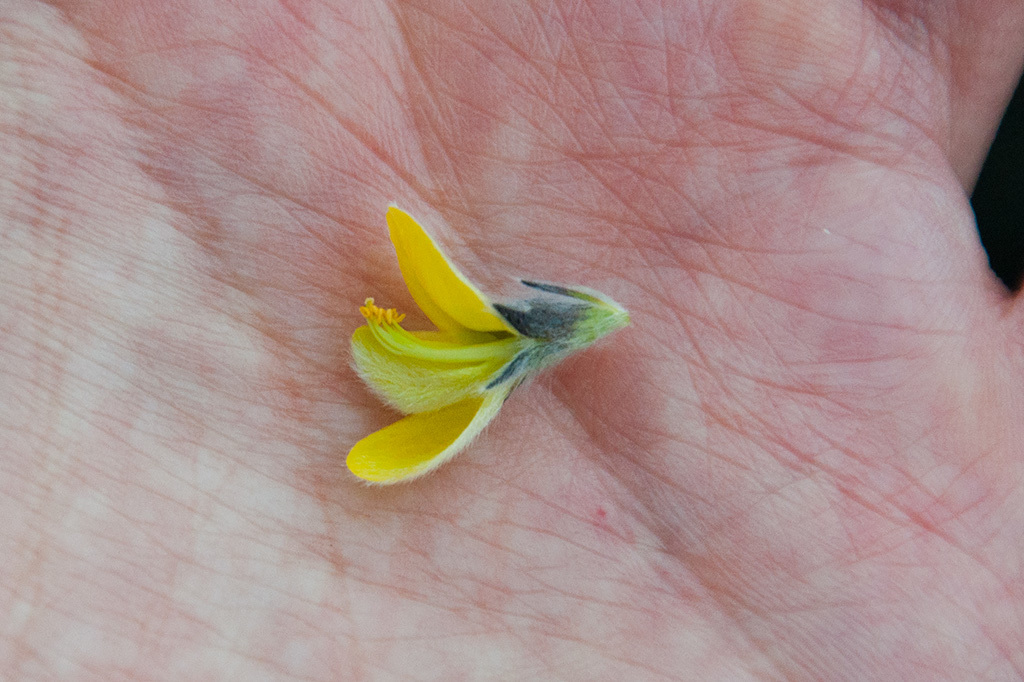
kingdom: Plantae
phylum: Tracheophyta
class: Magnoliopsida
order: Fabales
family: Fabaceae
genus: Aspalathus
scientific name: Aspalathus sericea
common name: Silky pea
